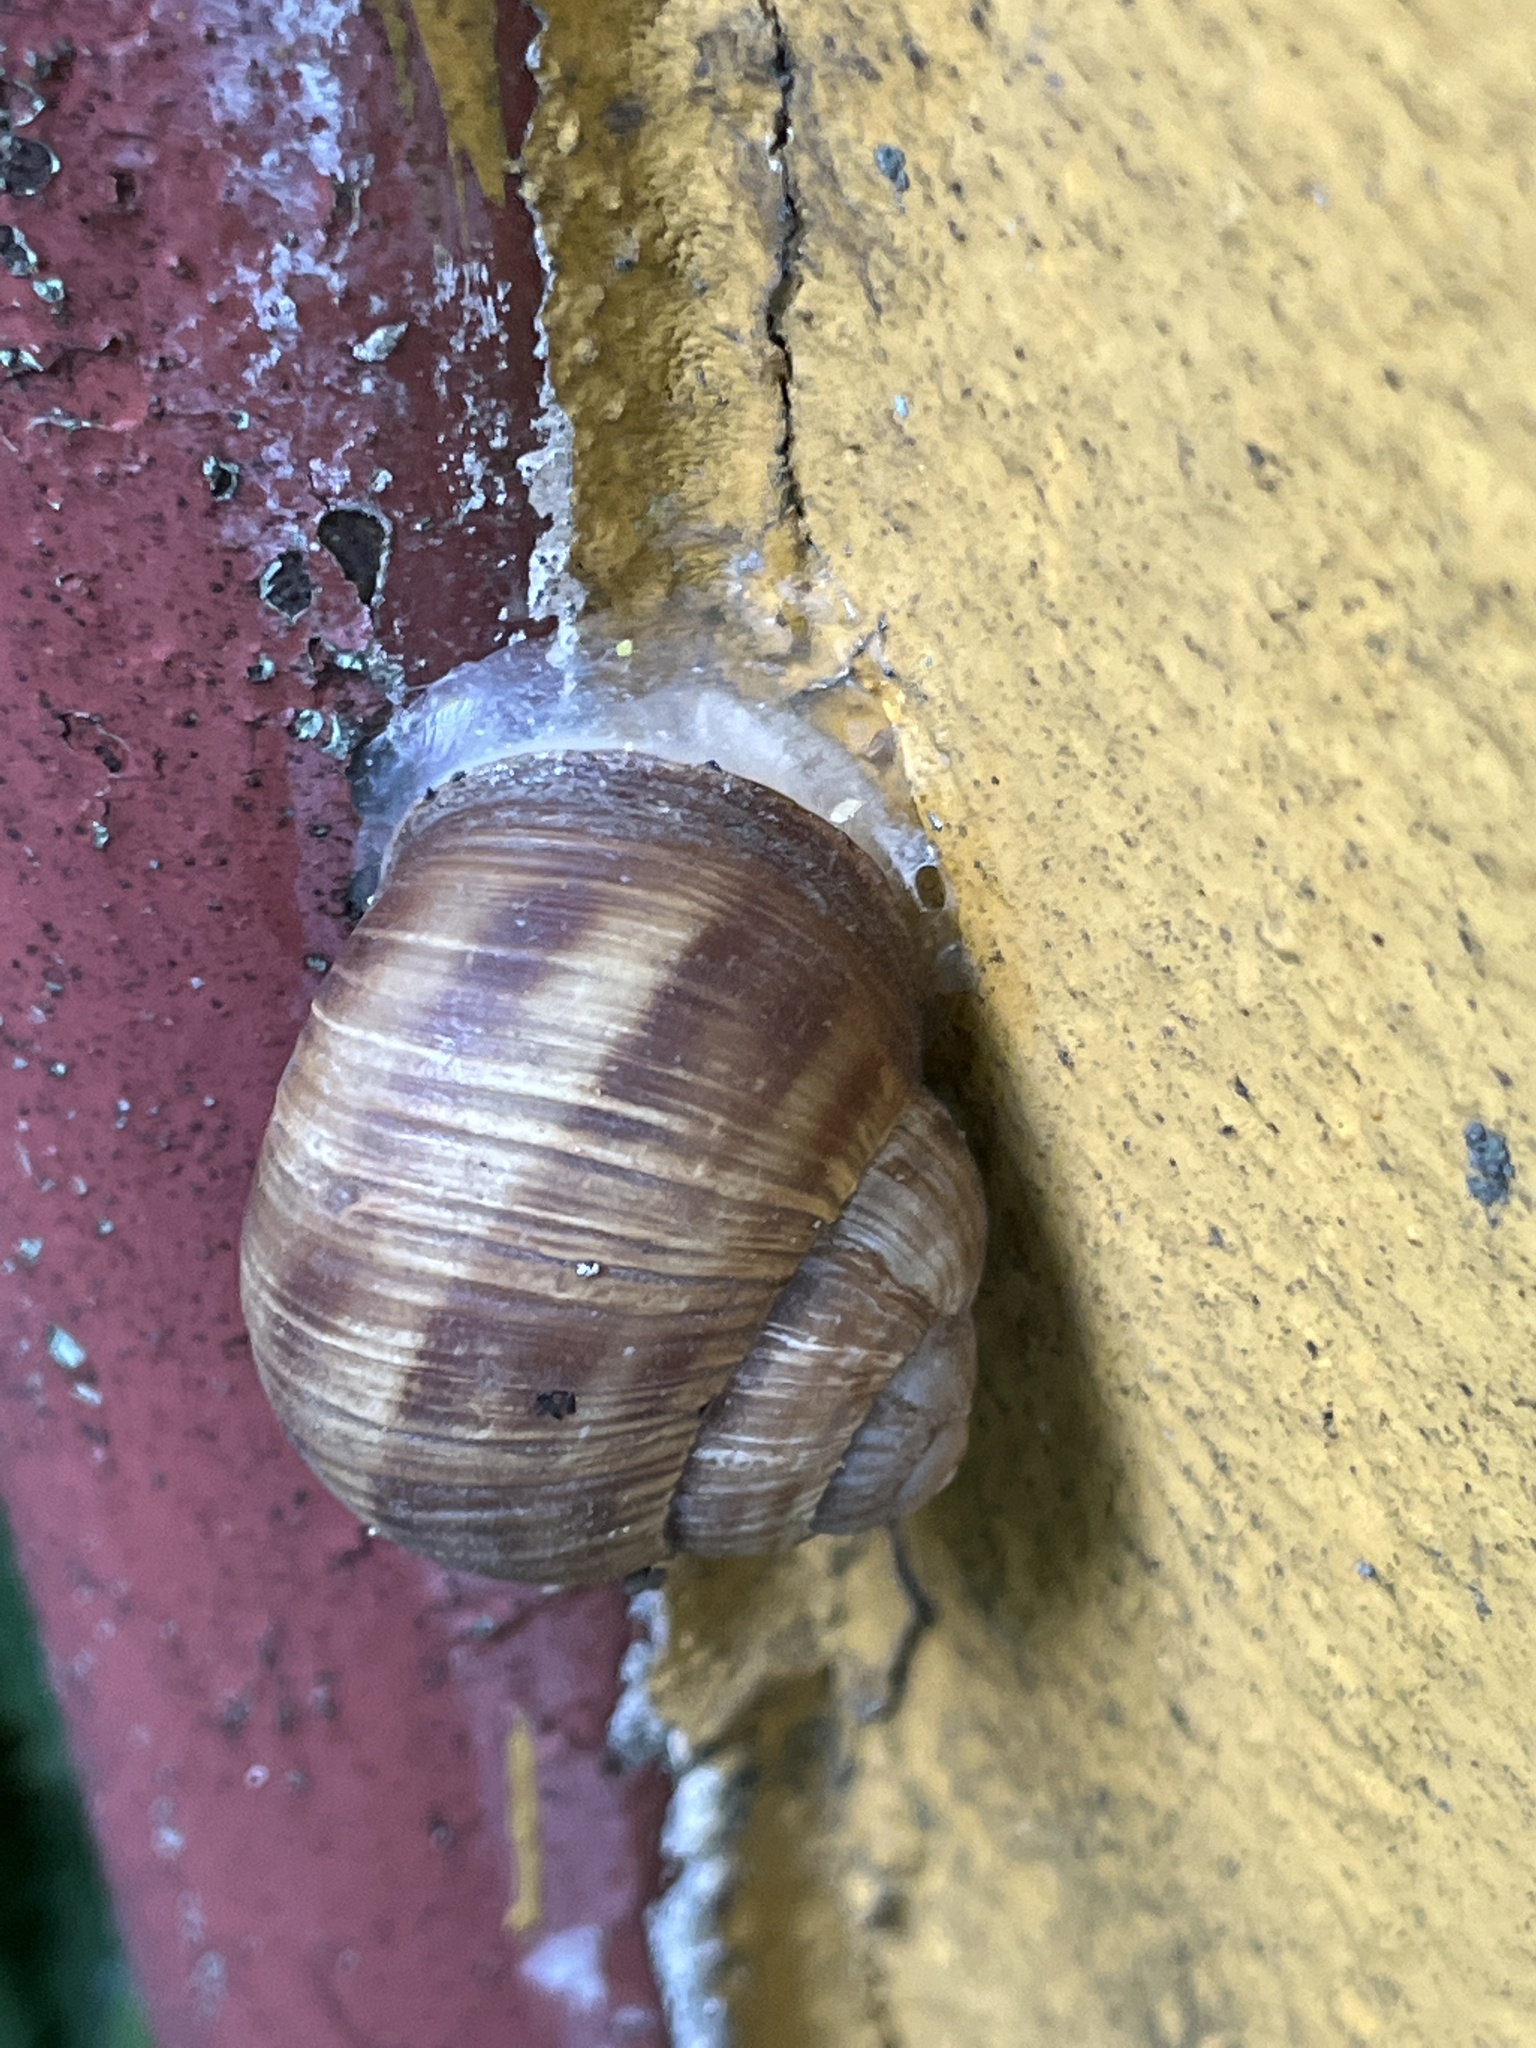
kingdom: Animalia
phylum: Mollusca
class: Gastropoda
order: Stylommatophora
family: Helicidae
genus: Helix
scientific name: Helix pomatia
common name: Roman snail
